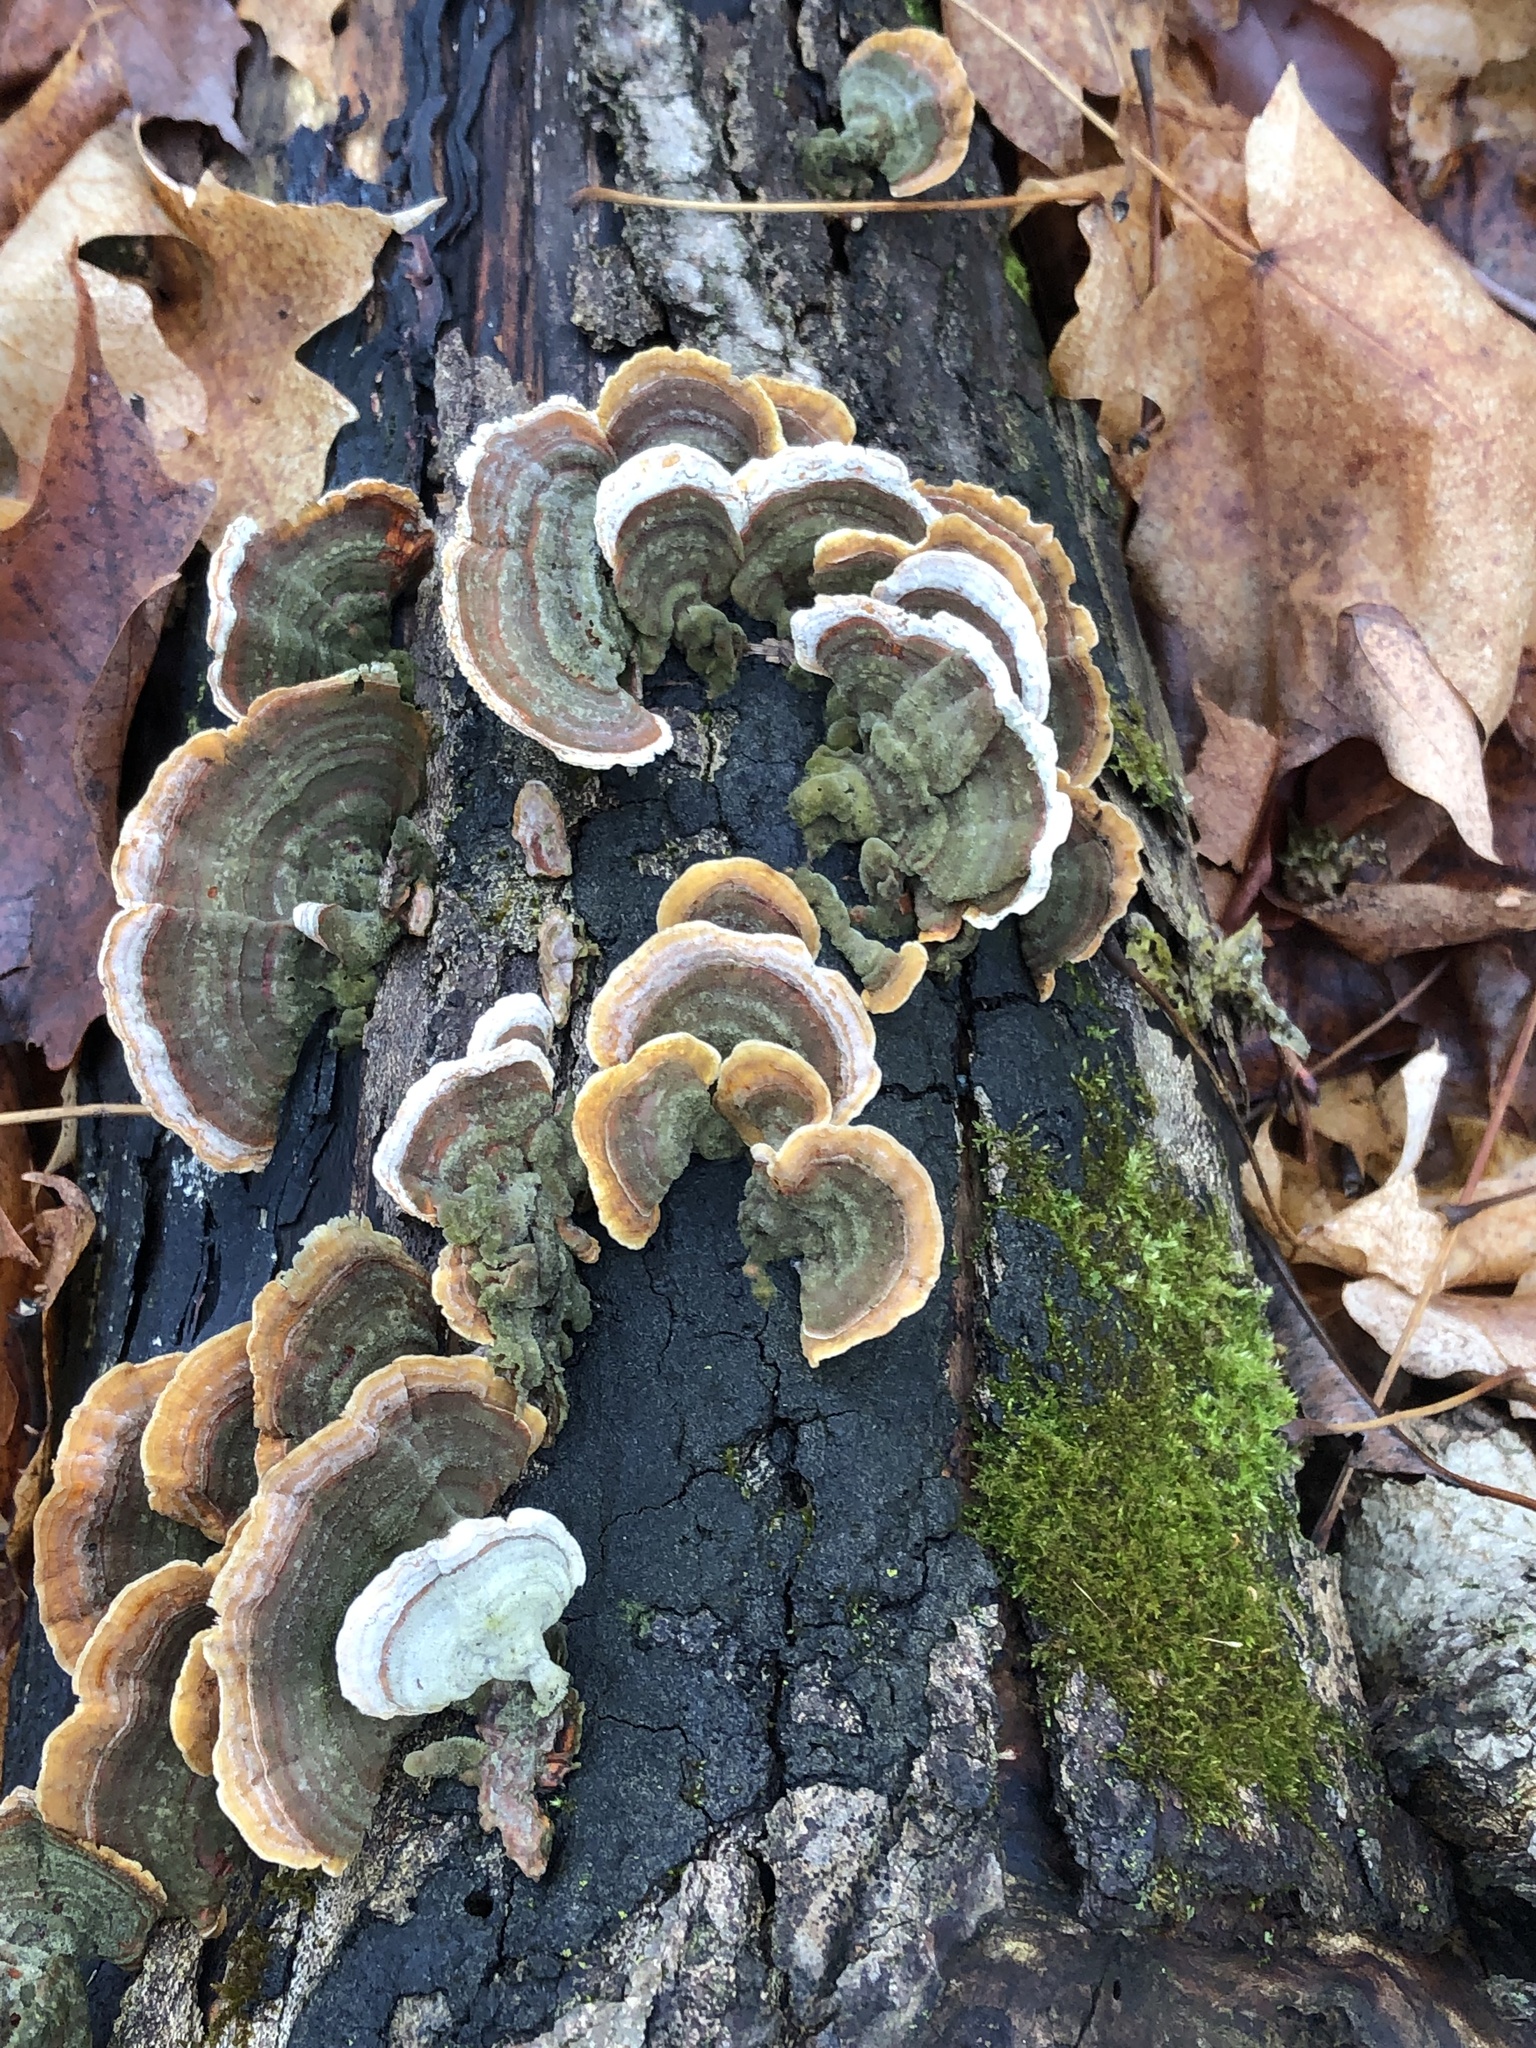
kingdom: Fungi
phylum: Basidiomycota
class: Agaricomycetes
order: Polyporales
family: Polyporaceae
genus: Trametes
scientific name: Trametes versicolor
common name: Turkeytail
